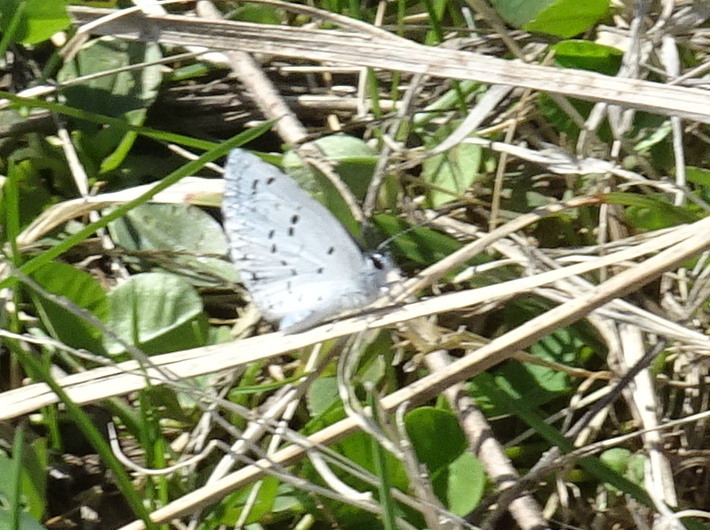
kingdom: Animalia
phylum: Arthropoda
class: Insecta
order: Lepidoptera
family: Lycaenidae
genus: Celastrina
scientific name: Celastrina ladon
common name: Spring azure
